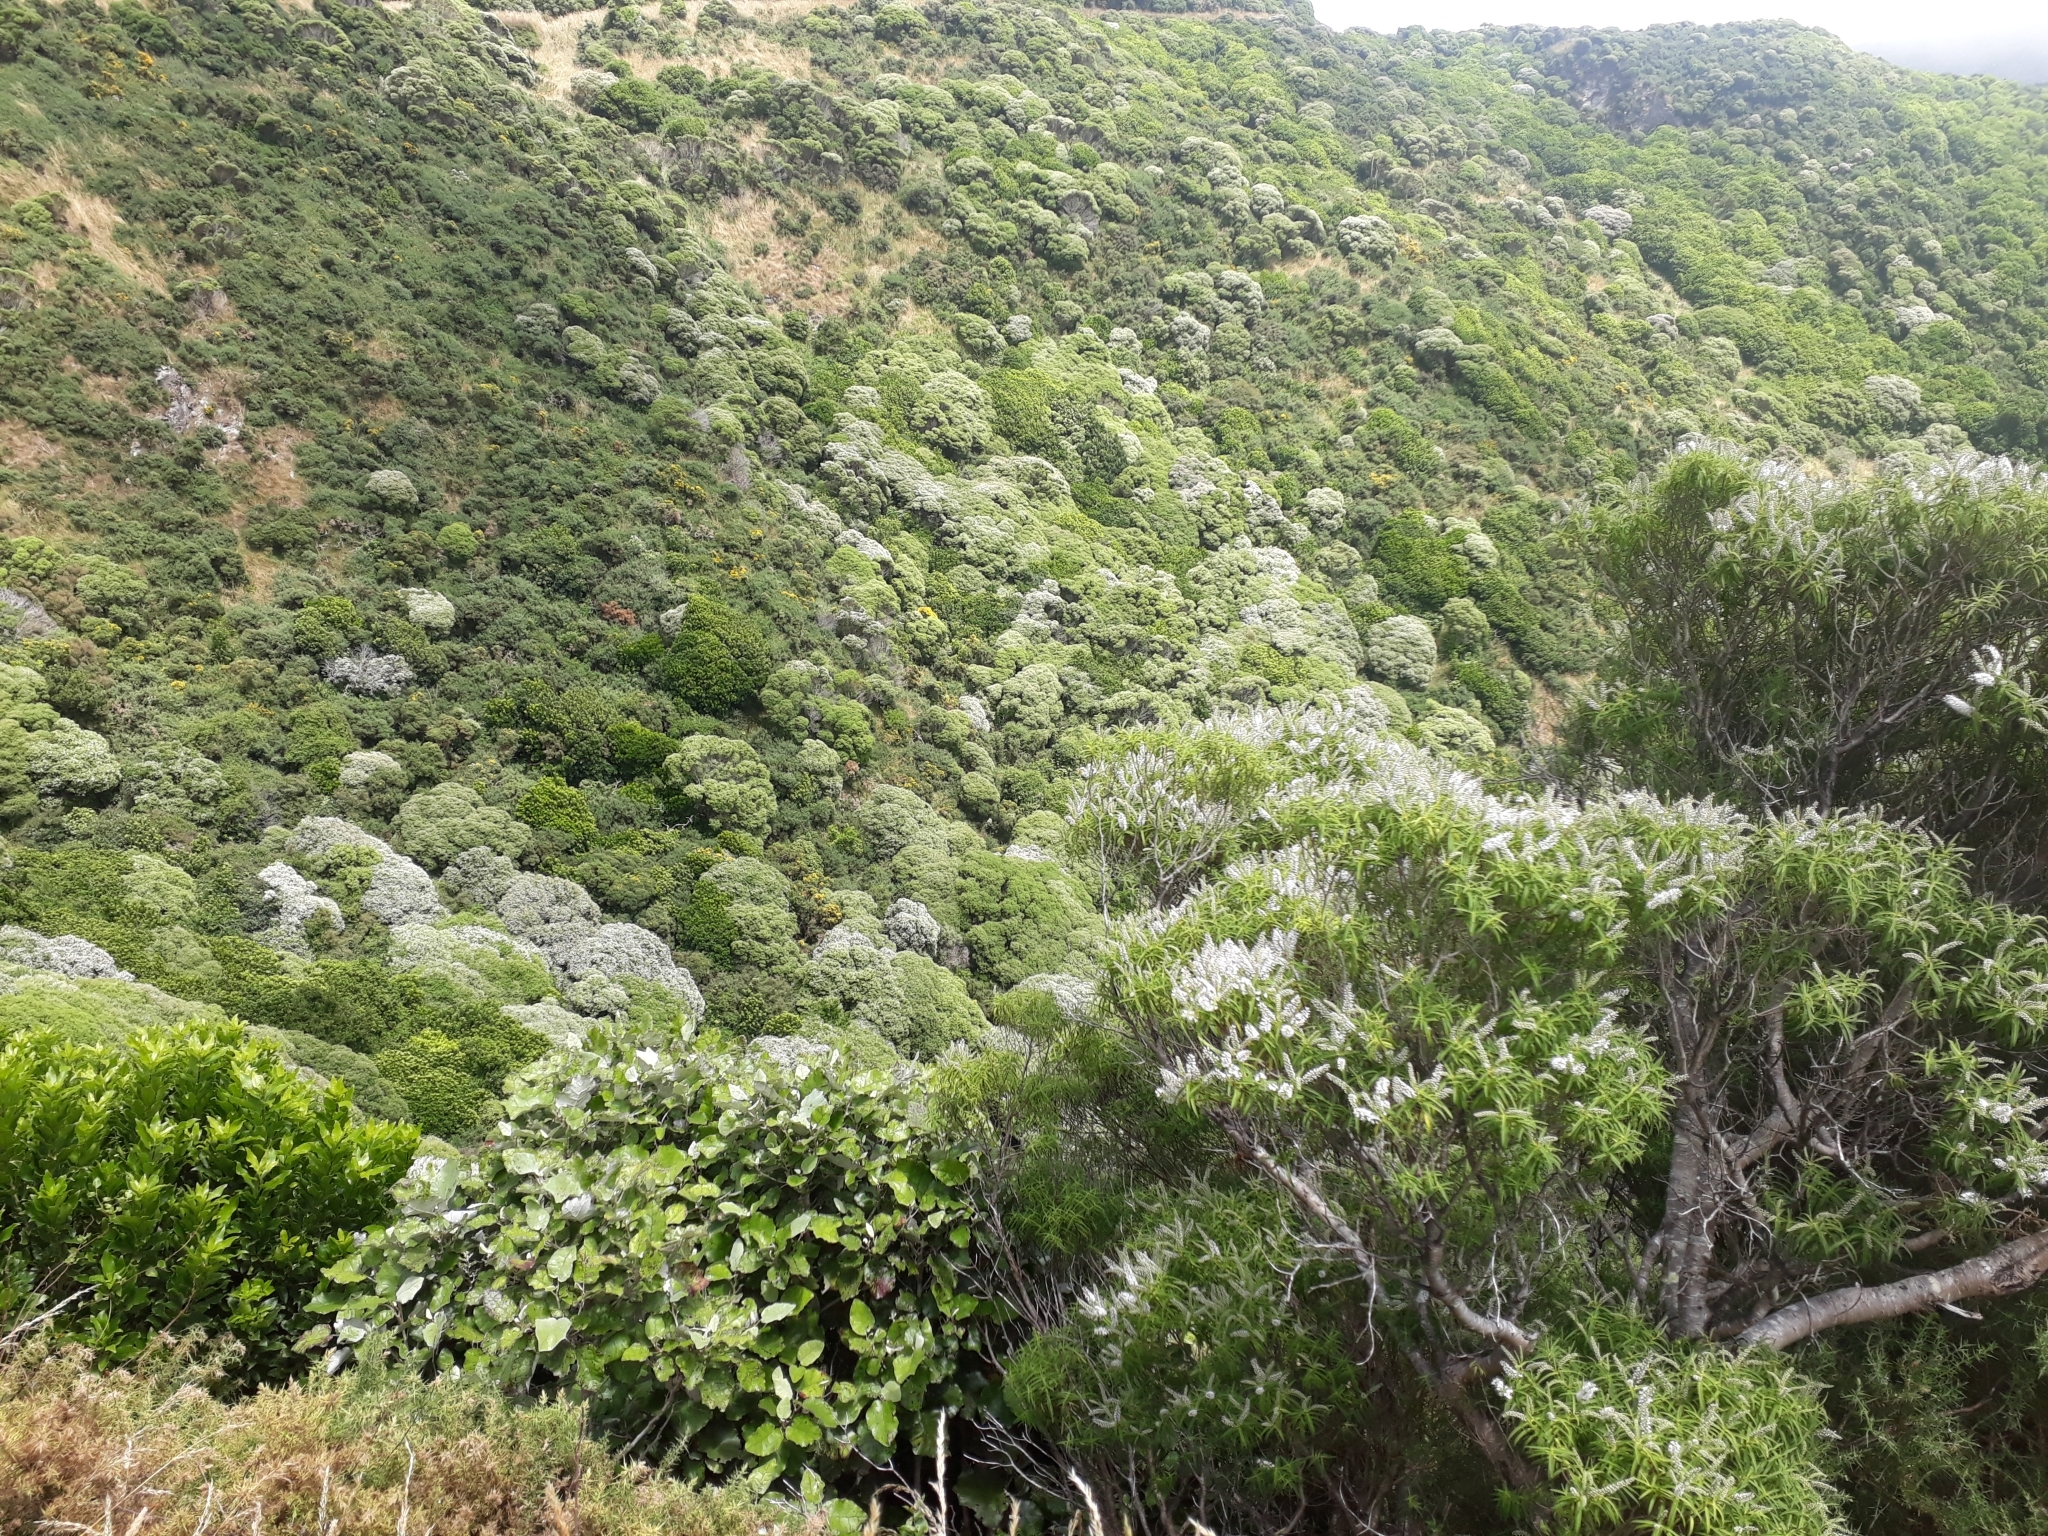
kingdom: Plantae
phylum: Tracheophyta
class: Magnoliopsida
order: Lamiales
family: Plantaginaceae
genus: Veronica
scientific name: Veronica parviflora
